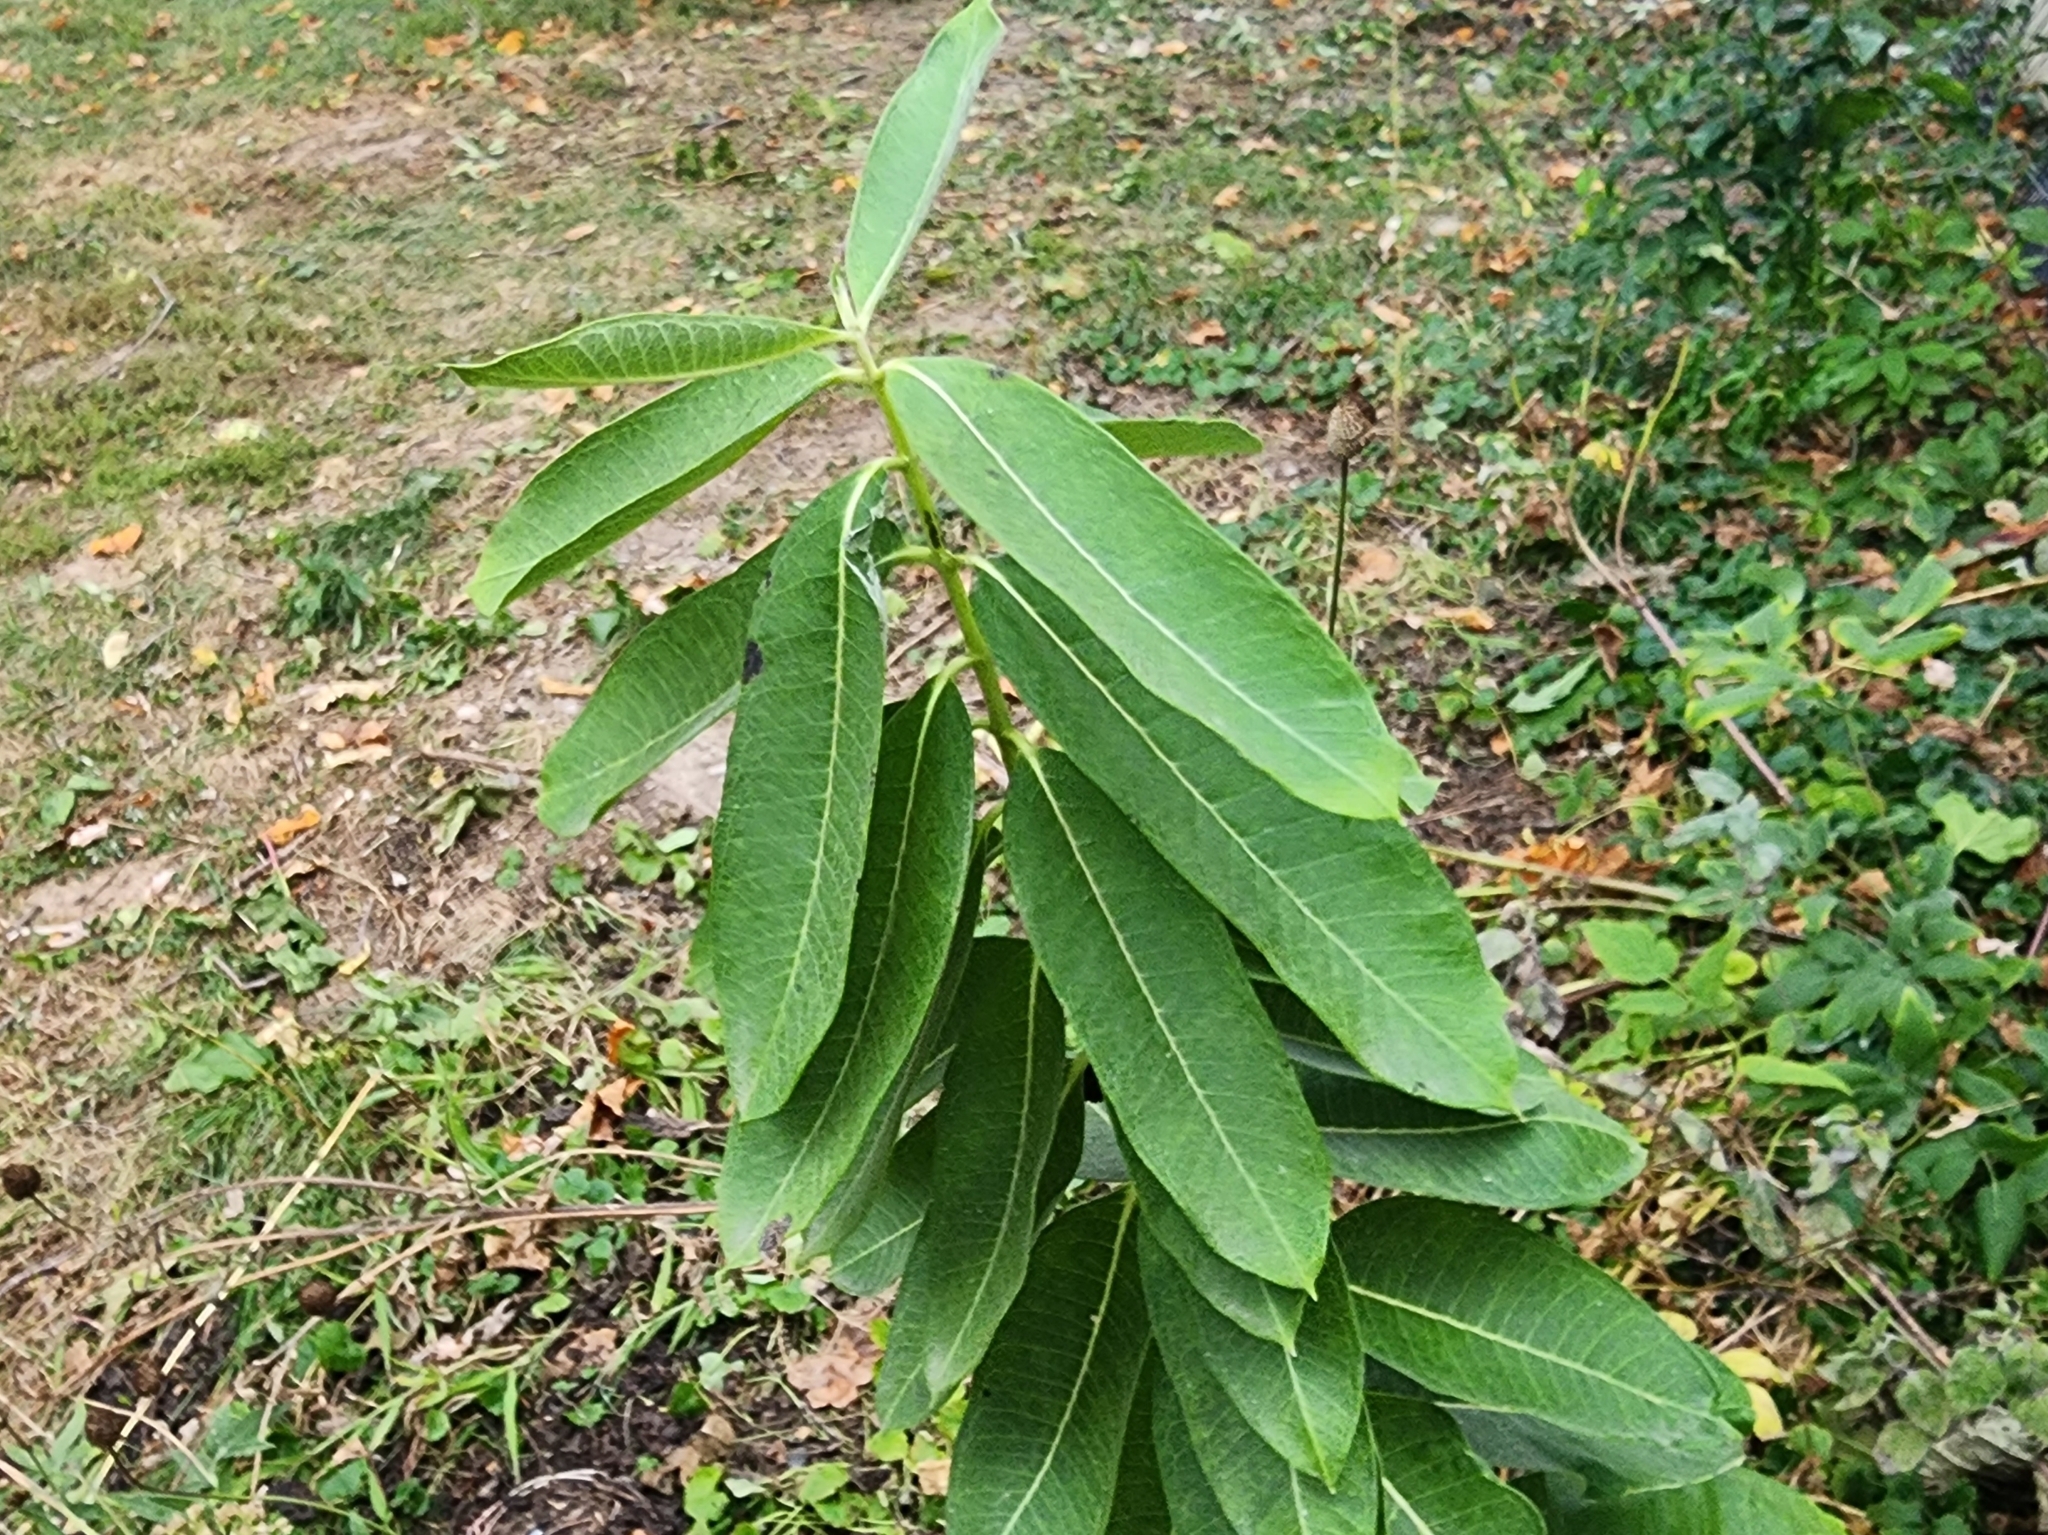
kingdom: Plantae
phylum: Tracheophyta
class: Magnoliopsida
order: Gentianales
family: Apocynaceae
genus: Asclepias
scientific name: Asclepias syriaca
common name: Common milkweed
